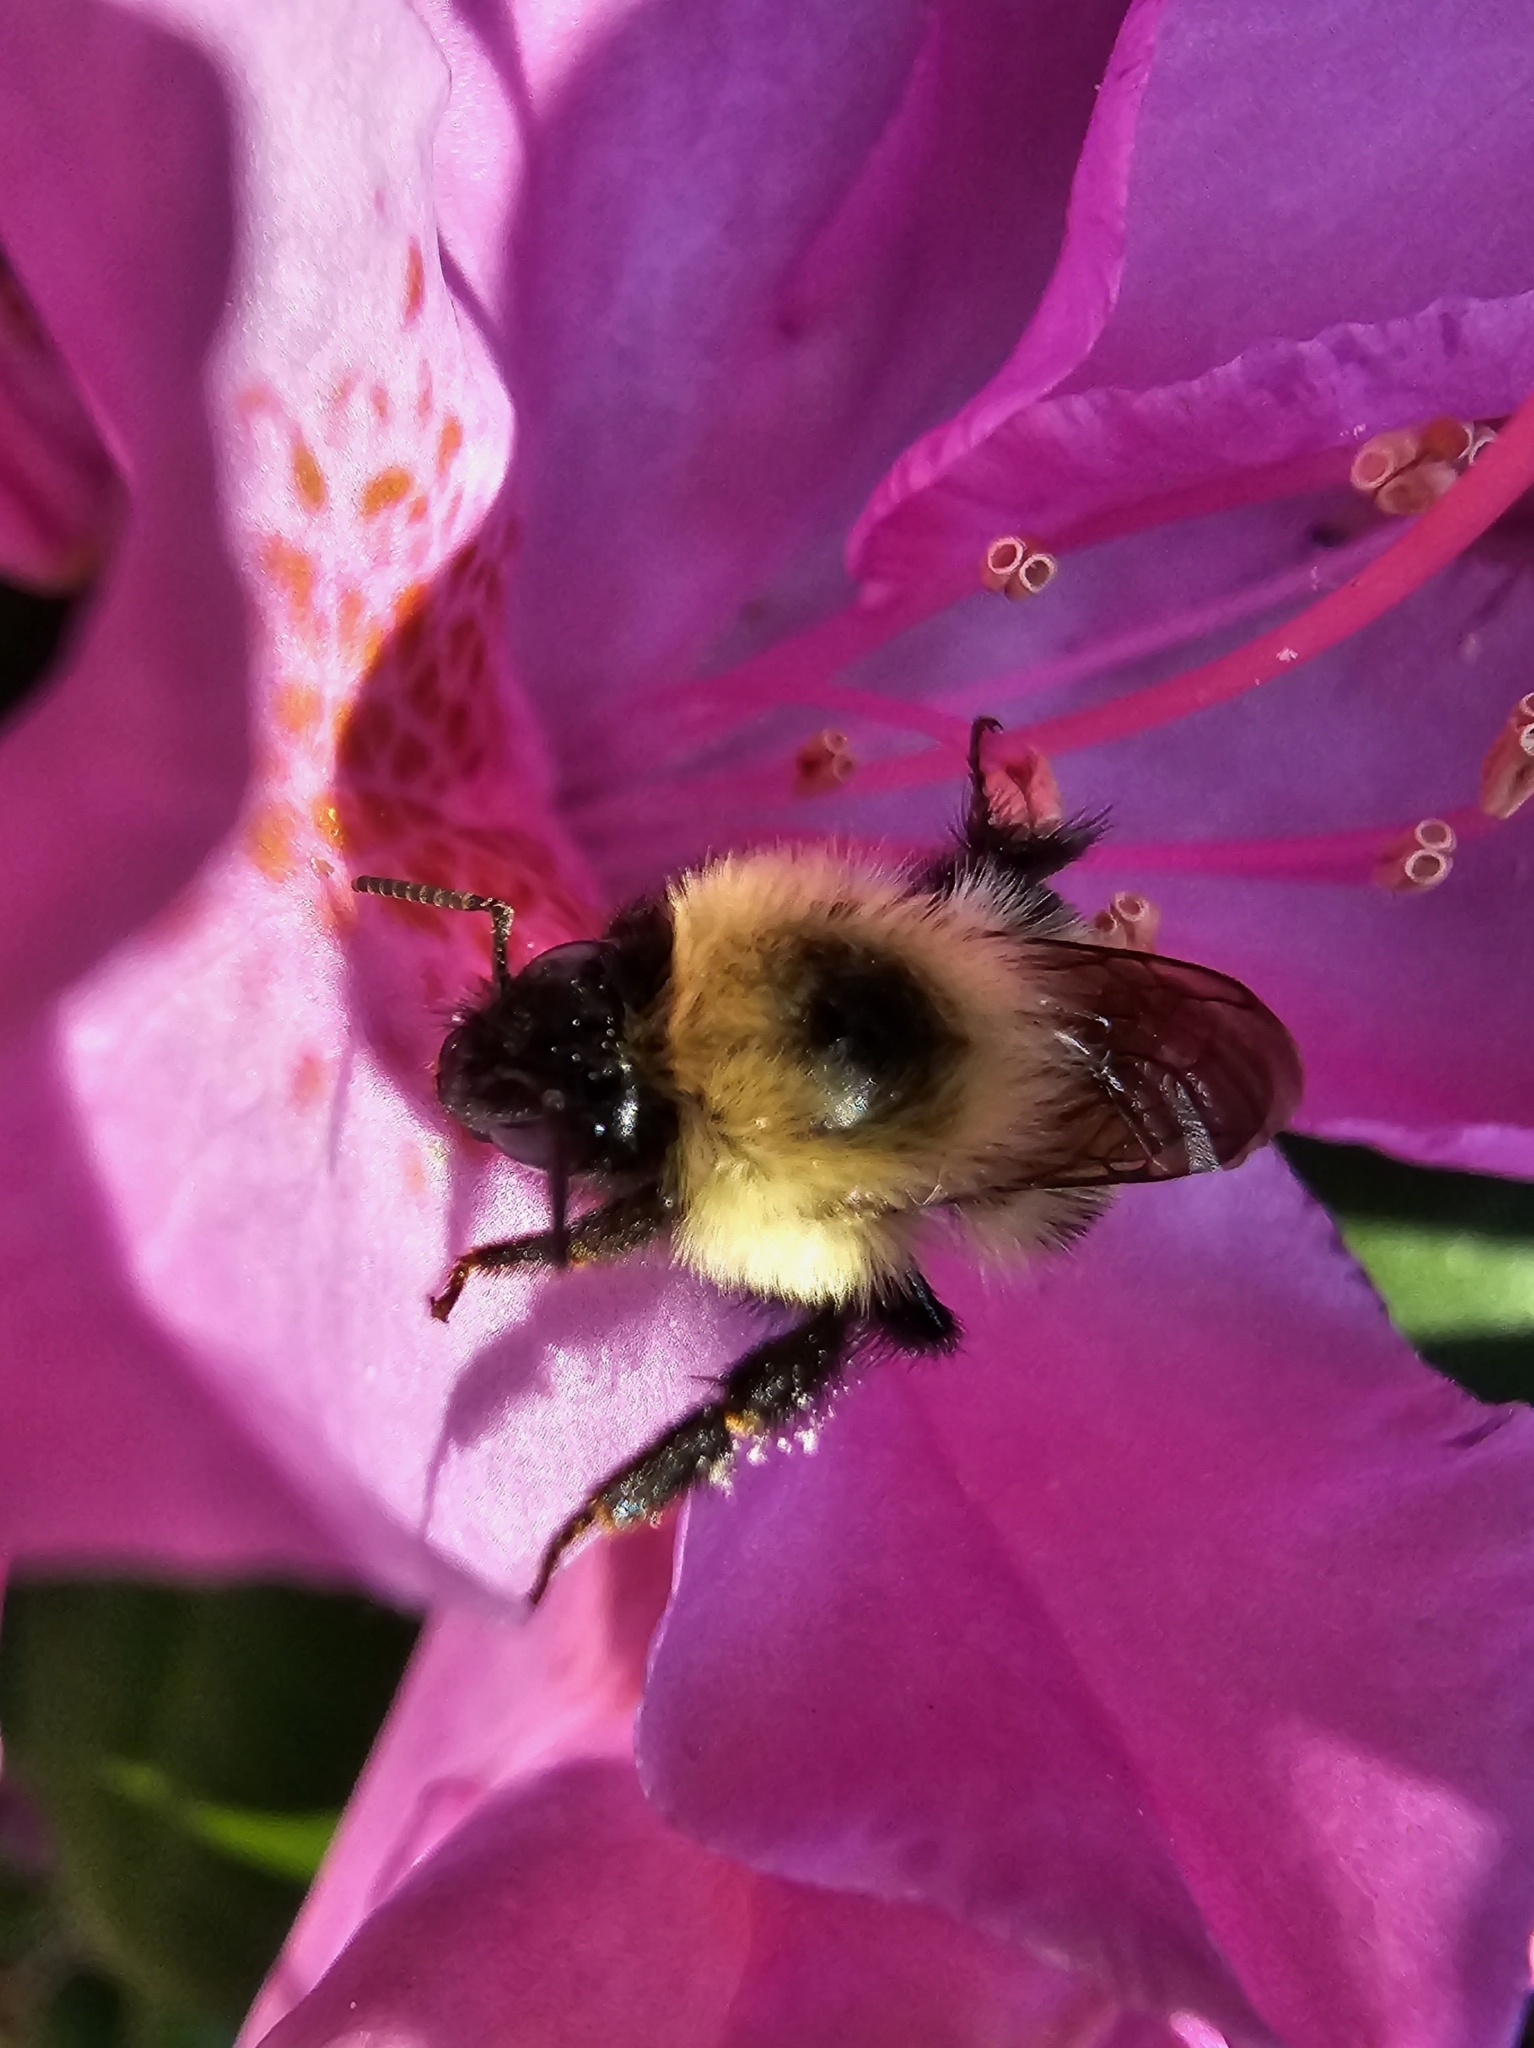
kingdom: Animalia
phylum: Arthropoda
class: Insecta
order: Hymenoptera
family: Apidae
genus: Bombus
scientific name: Bombus bimaculatus
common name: Two-spotted bumble bee
